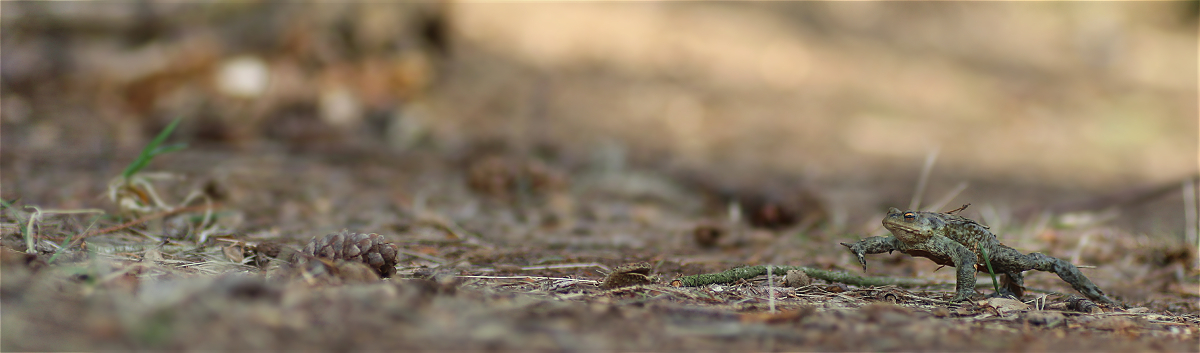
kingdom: Animalia
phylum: Chordata
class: Amphibia
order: Anura
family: Bufonidae
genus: Bufo
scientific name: Bufo bufo
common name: Common toad
